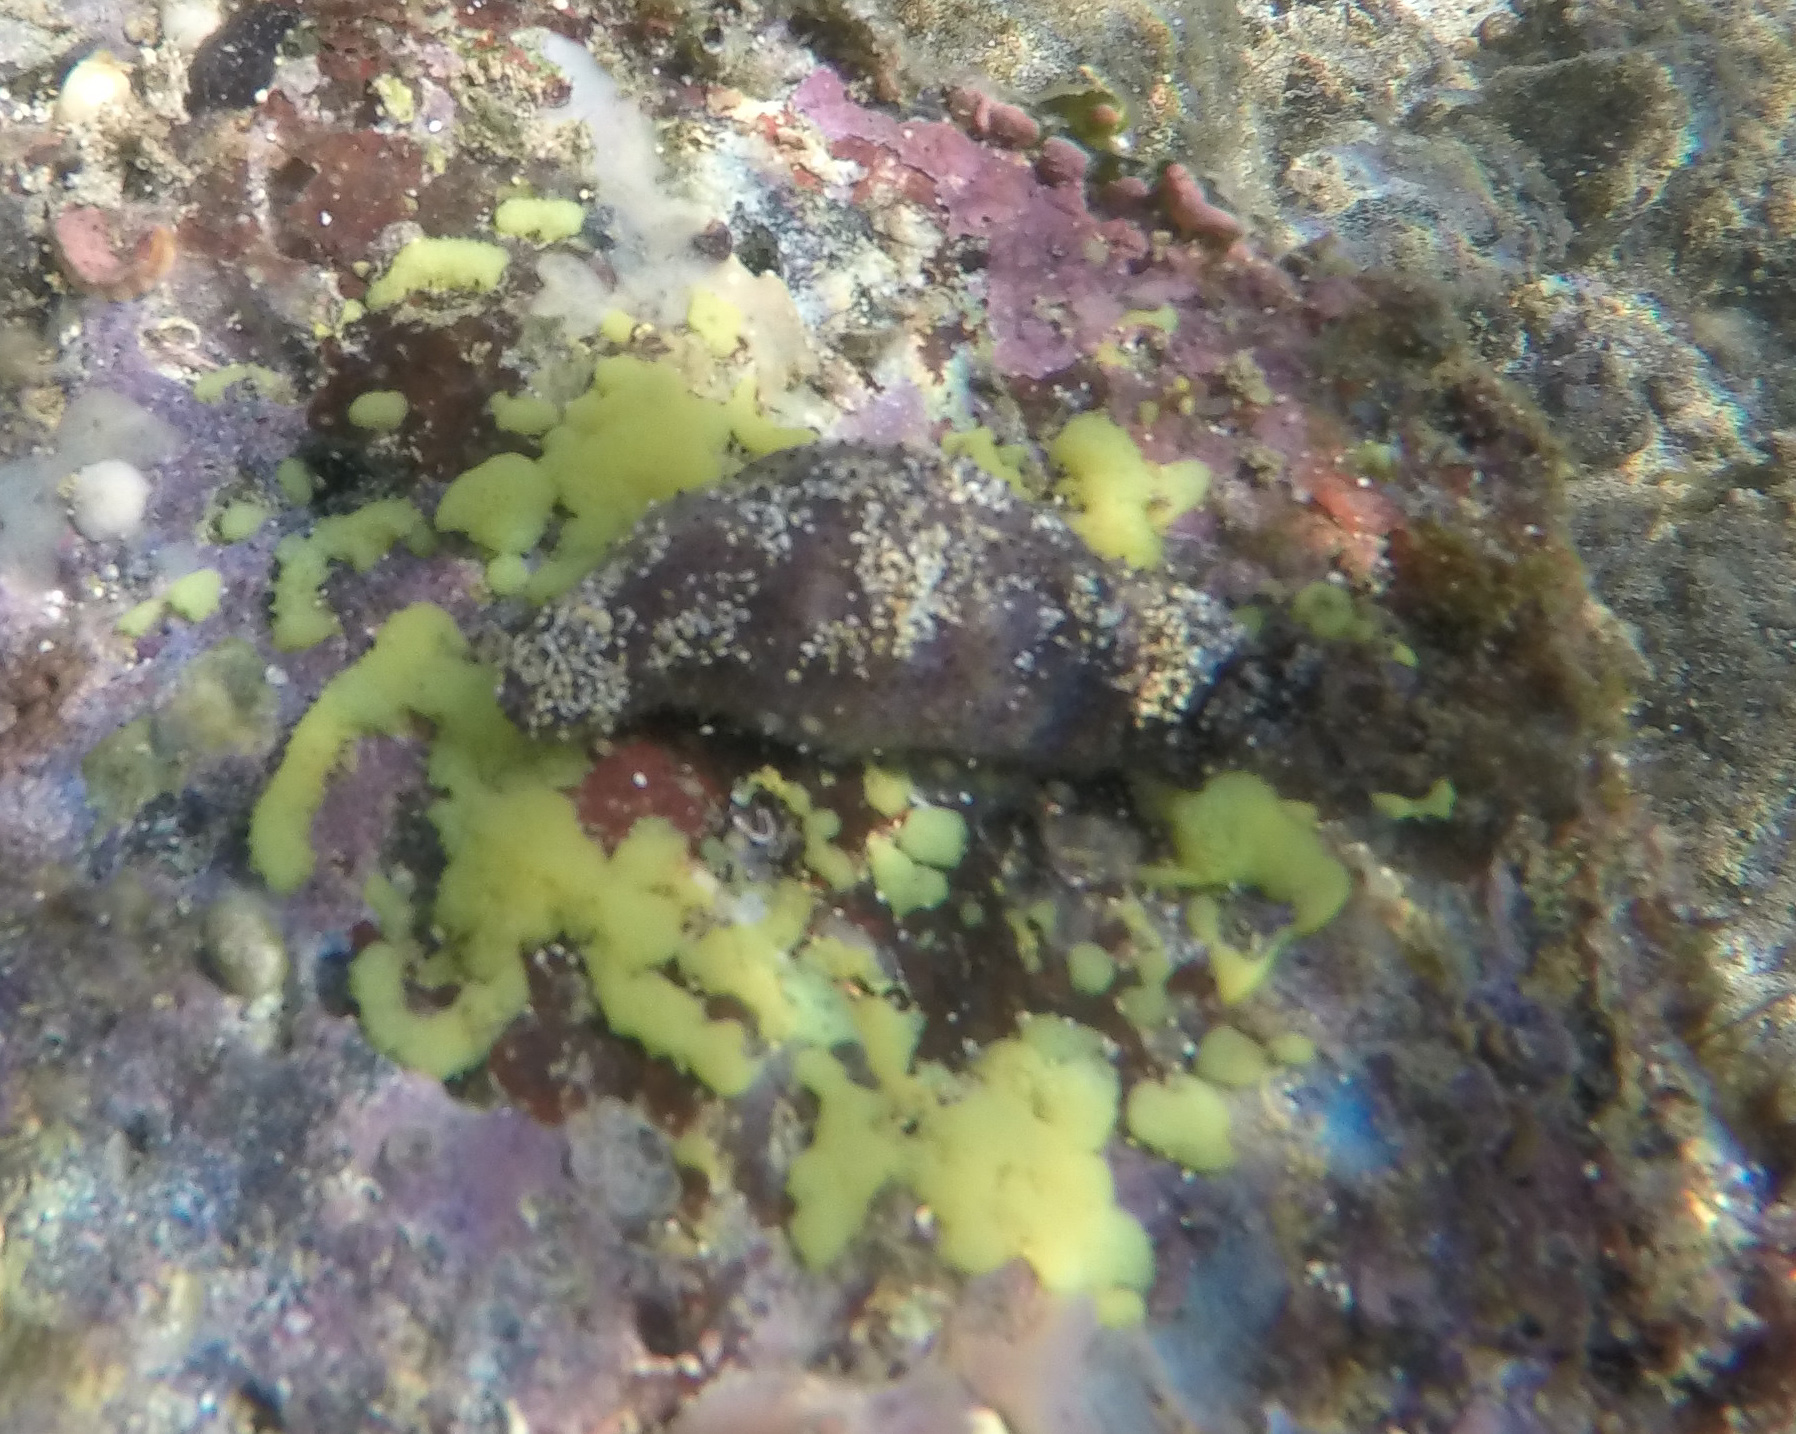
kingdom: Animalia
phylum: Echinodermata
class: Holothuroidea
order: Holothuriida
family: Holothuriidae
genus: Holothuria
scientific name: Holothuria cinerascens
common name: Ashy sea cucumber
